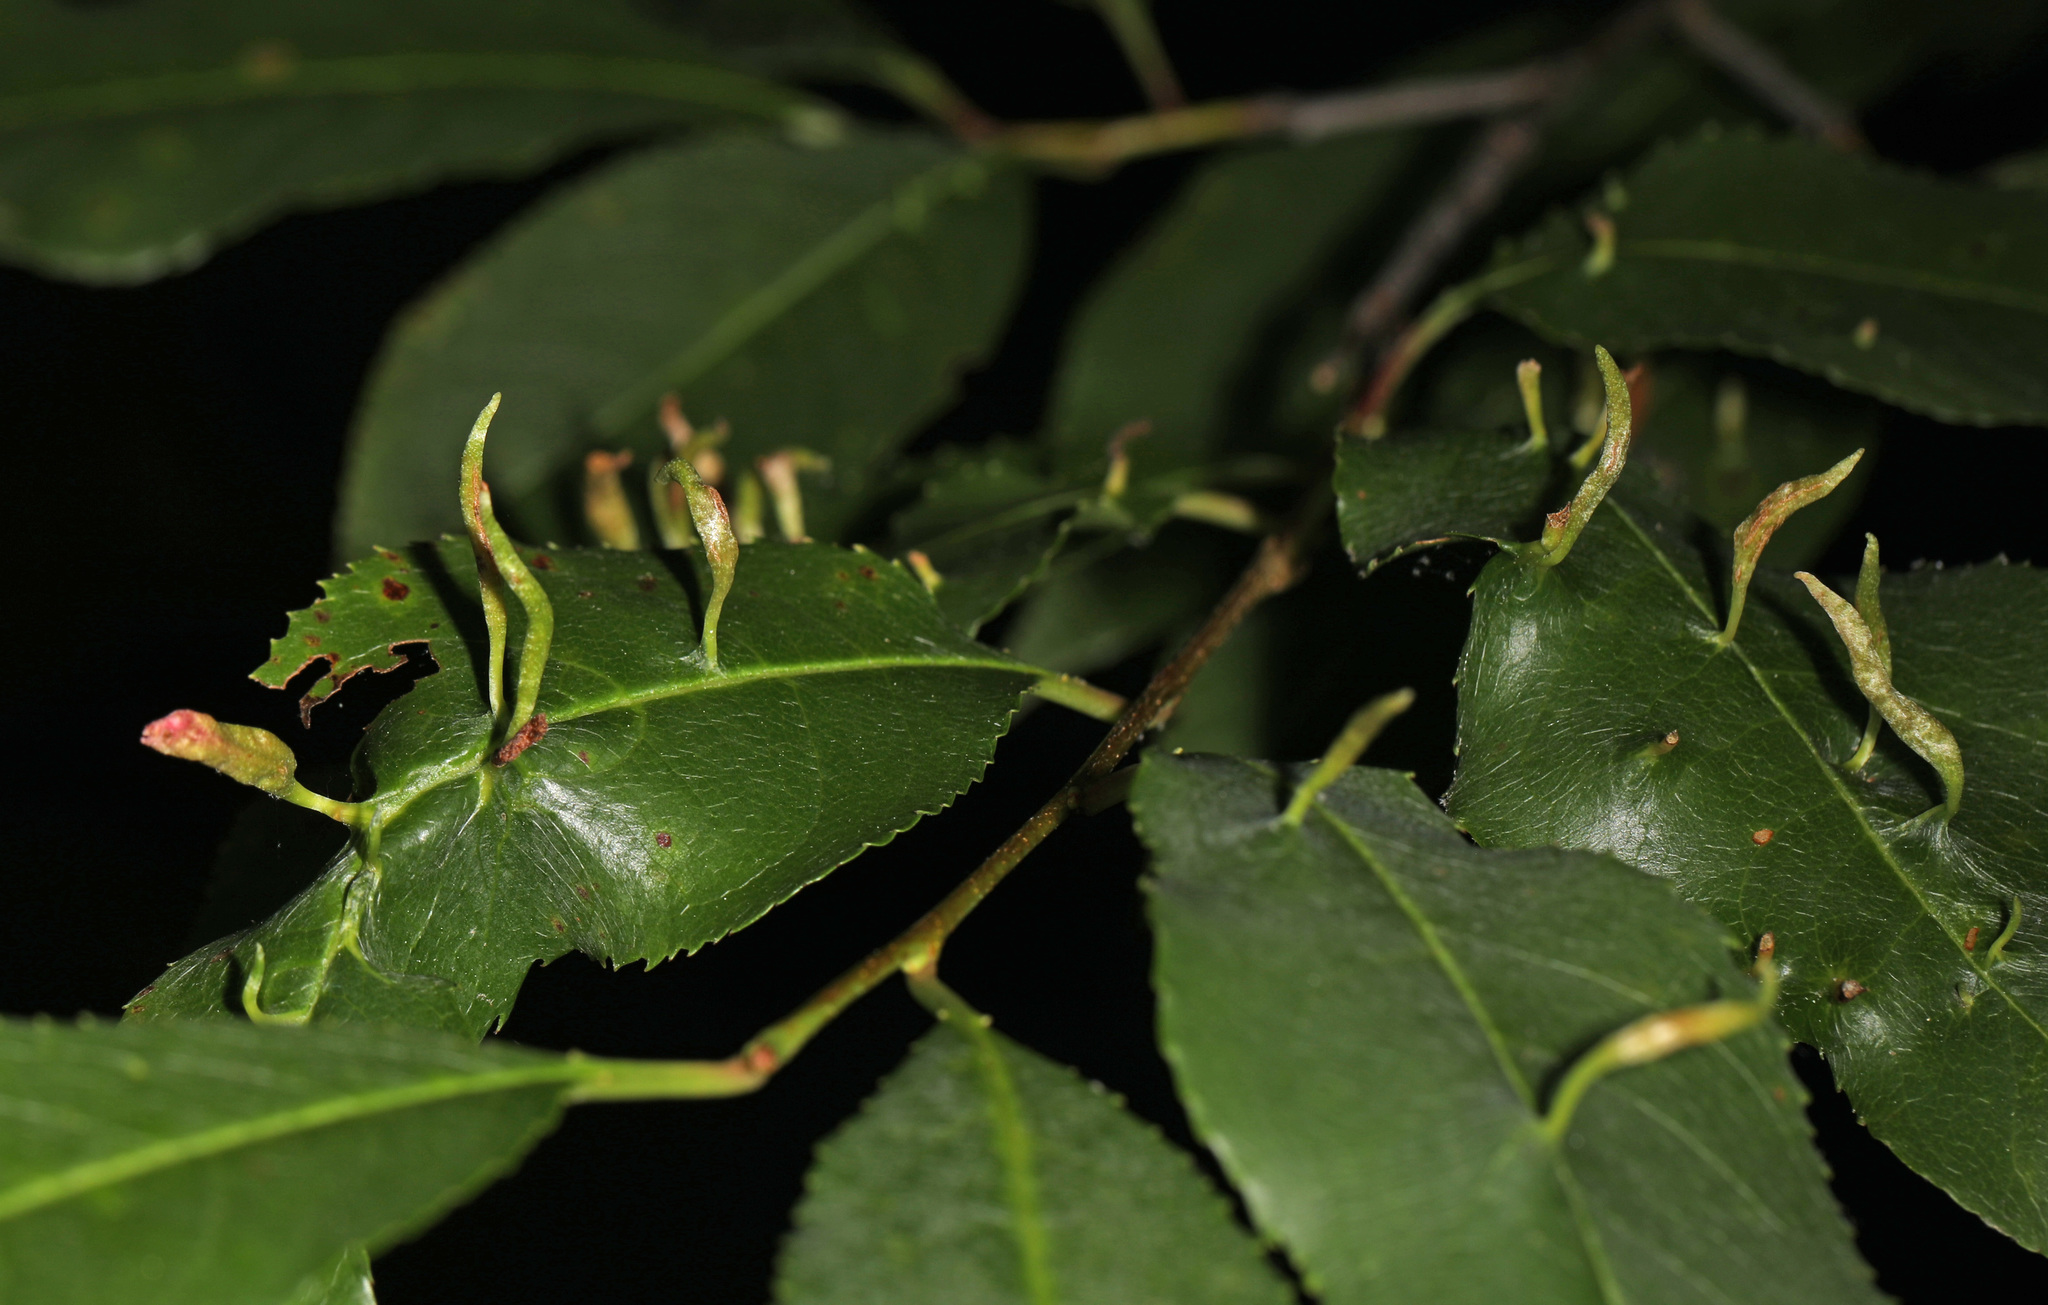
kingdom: Animalia
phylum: Arthropoda
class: Arachnida
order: Trombidiformes
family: Eriophyidae
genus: Eriophyes
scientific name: Eriophyes
